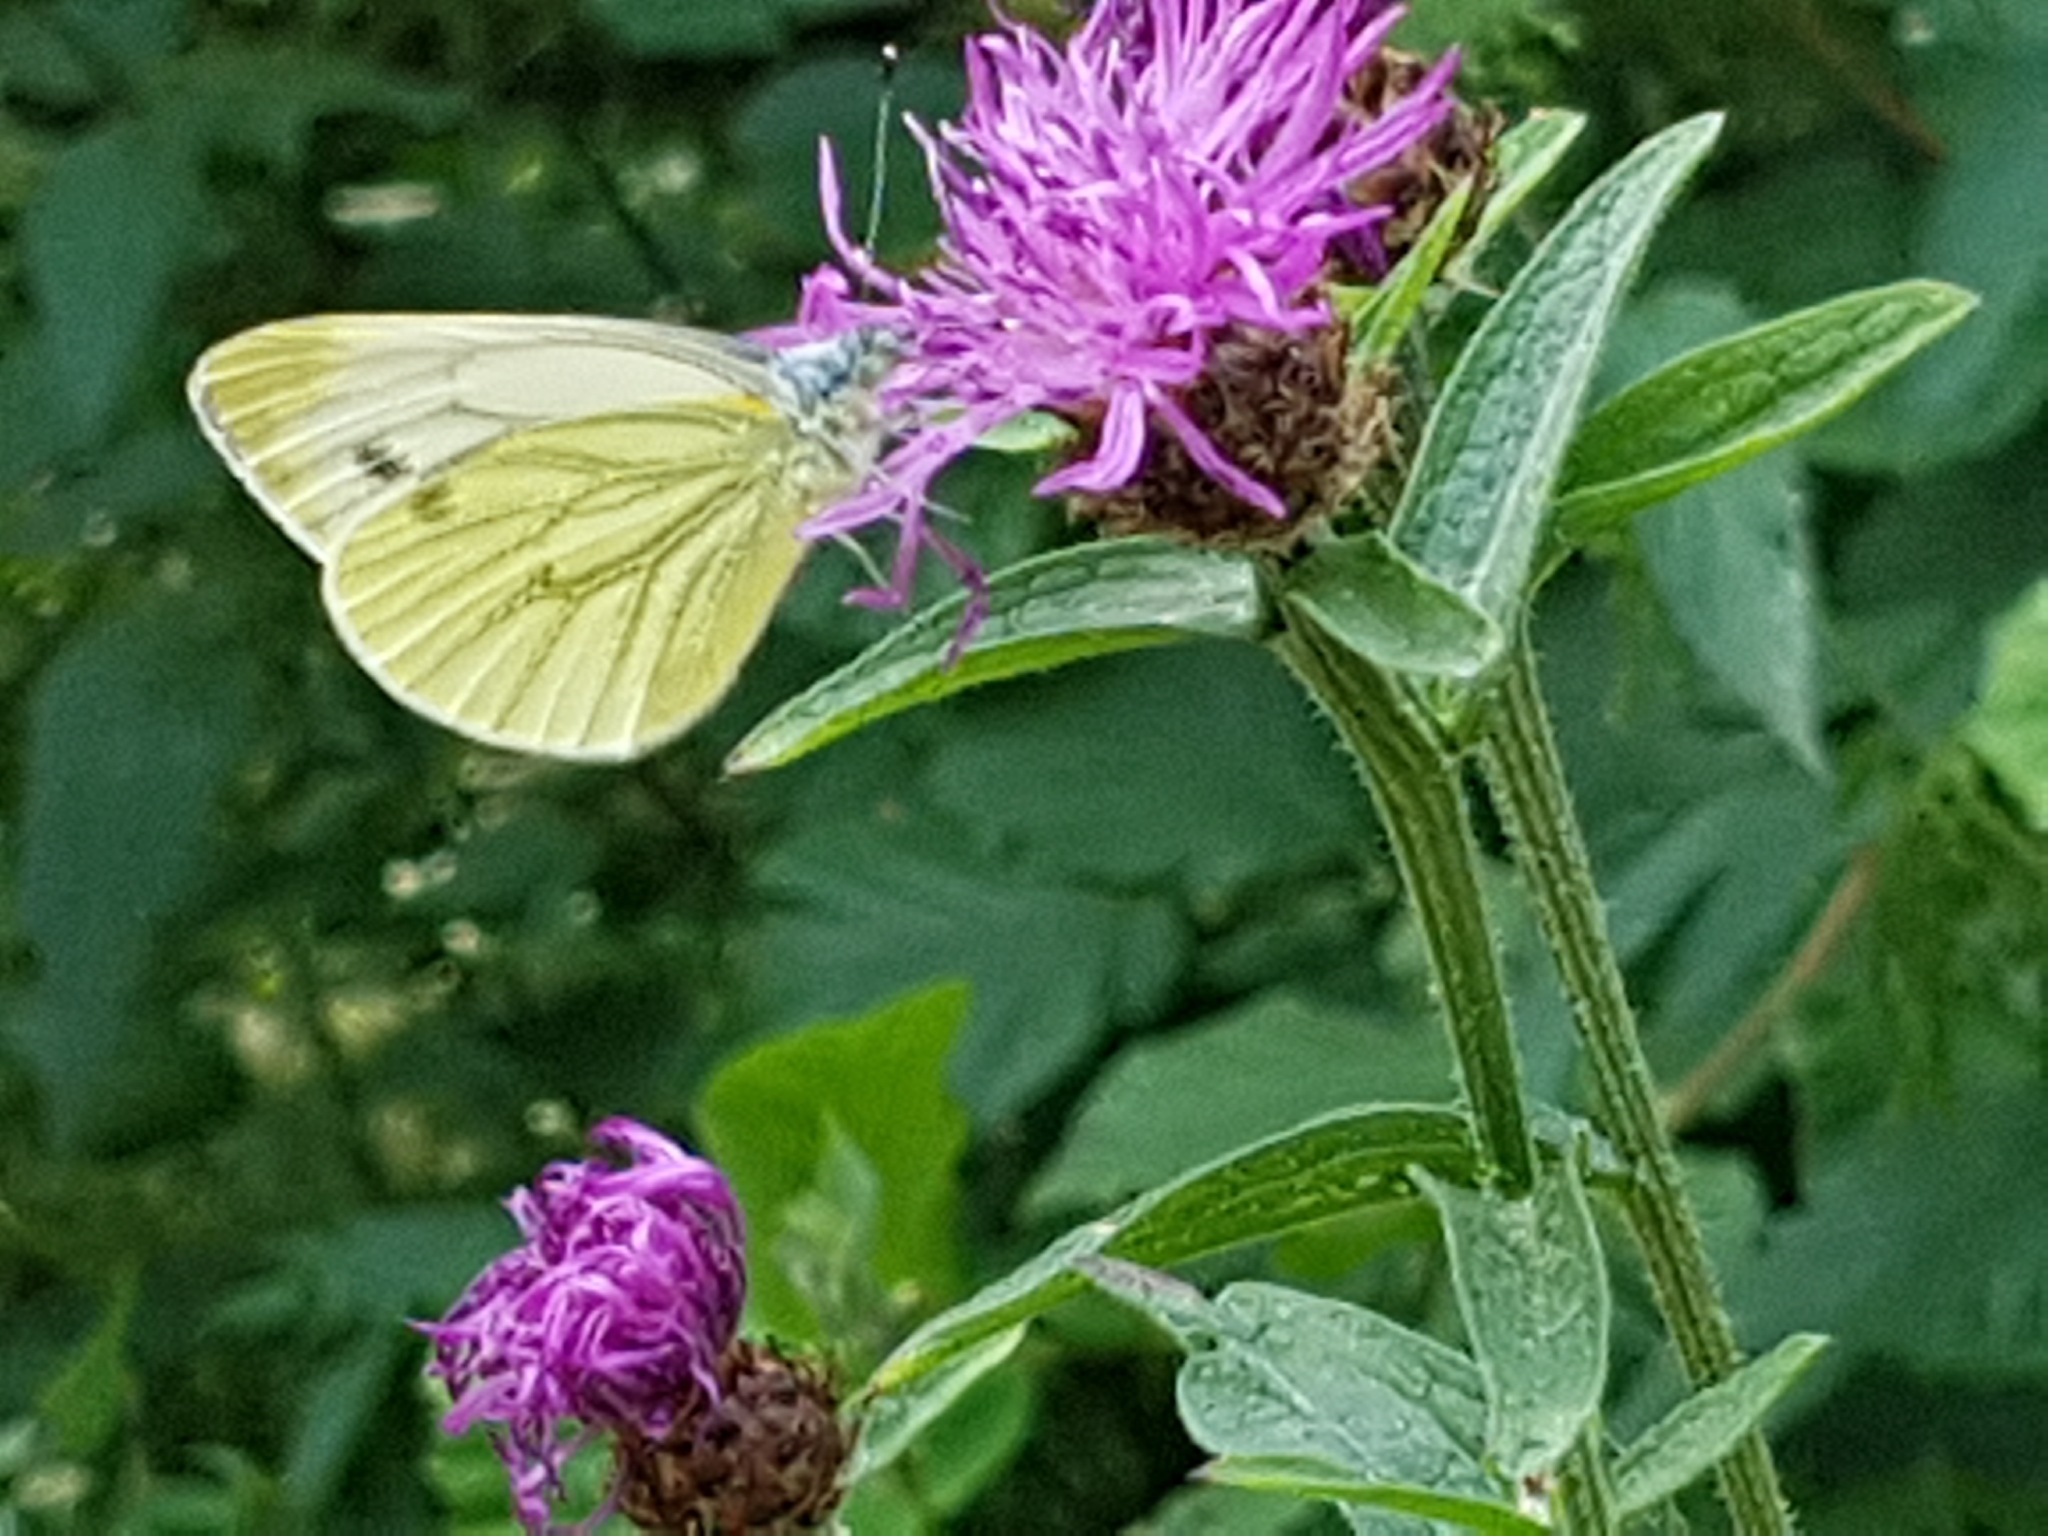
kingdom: Animalia
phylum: Arthropoda
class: Insecta
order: Lepidoptera
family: Pieridae
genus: Pieris
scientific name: Pieris napi
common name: Green-veined white
